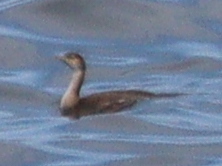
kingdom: Animalia
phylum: Chordata
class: Aves
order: Suliformes
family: Phalacrocoracidae
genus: Phalacrocorax
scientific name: Phalacrocorax aristotelis
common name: European shag
